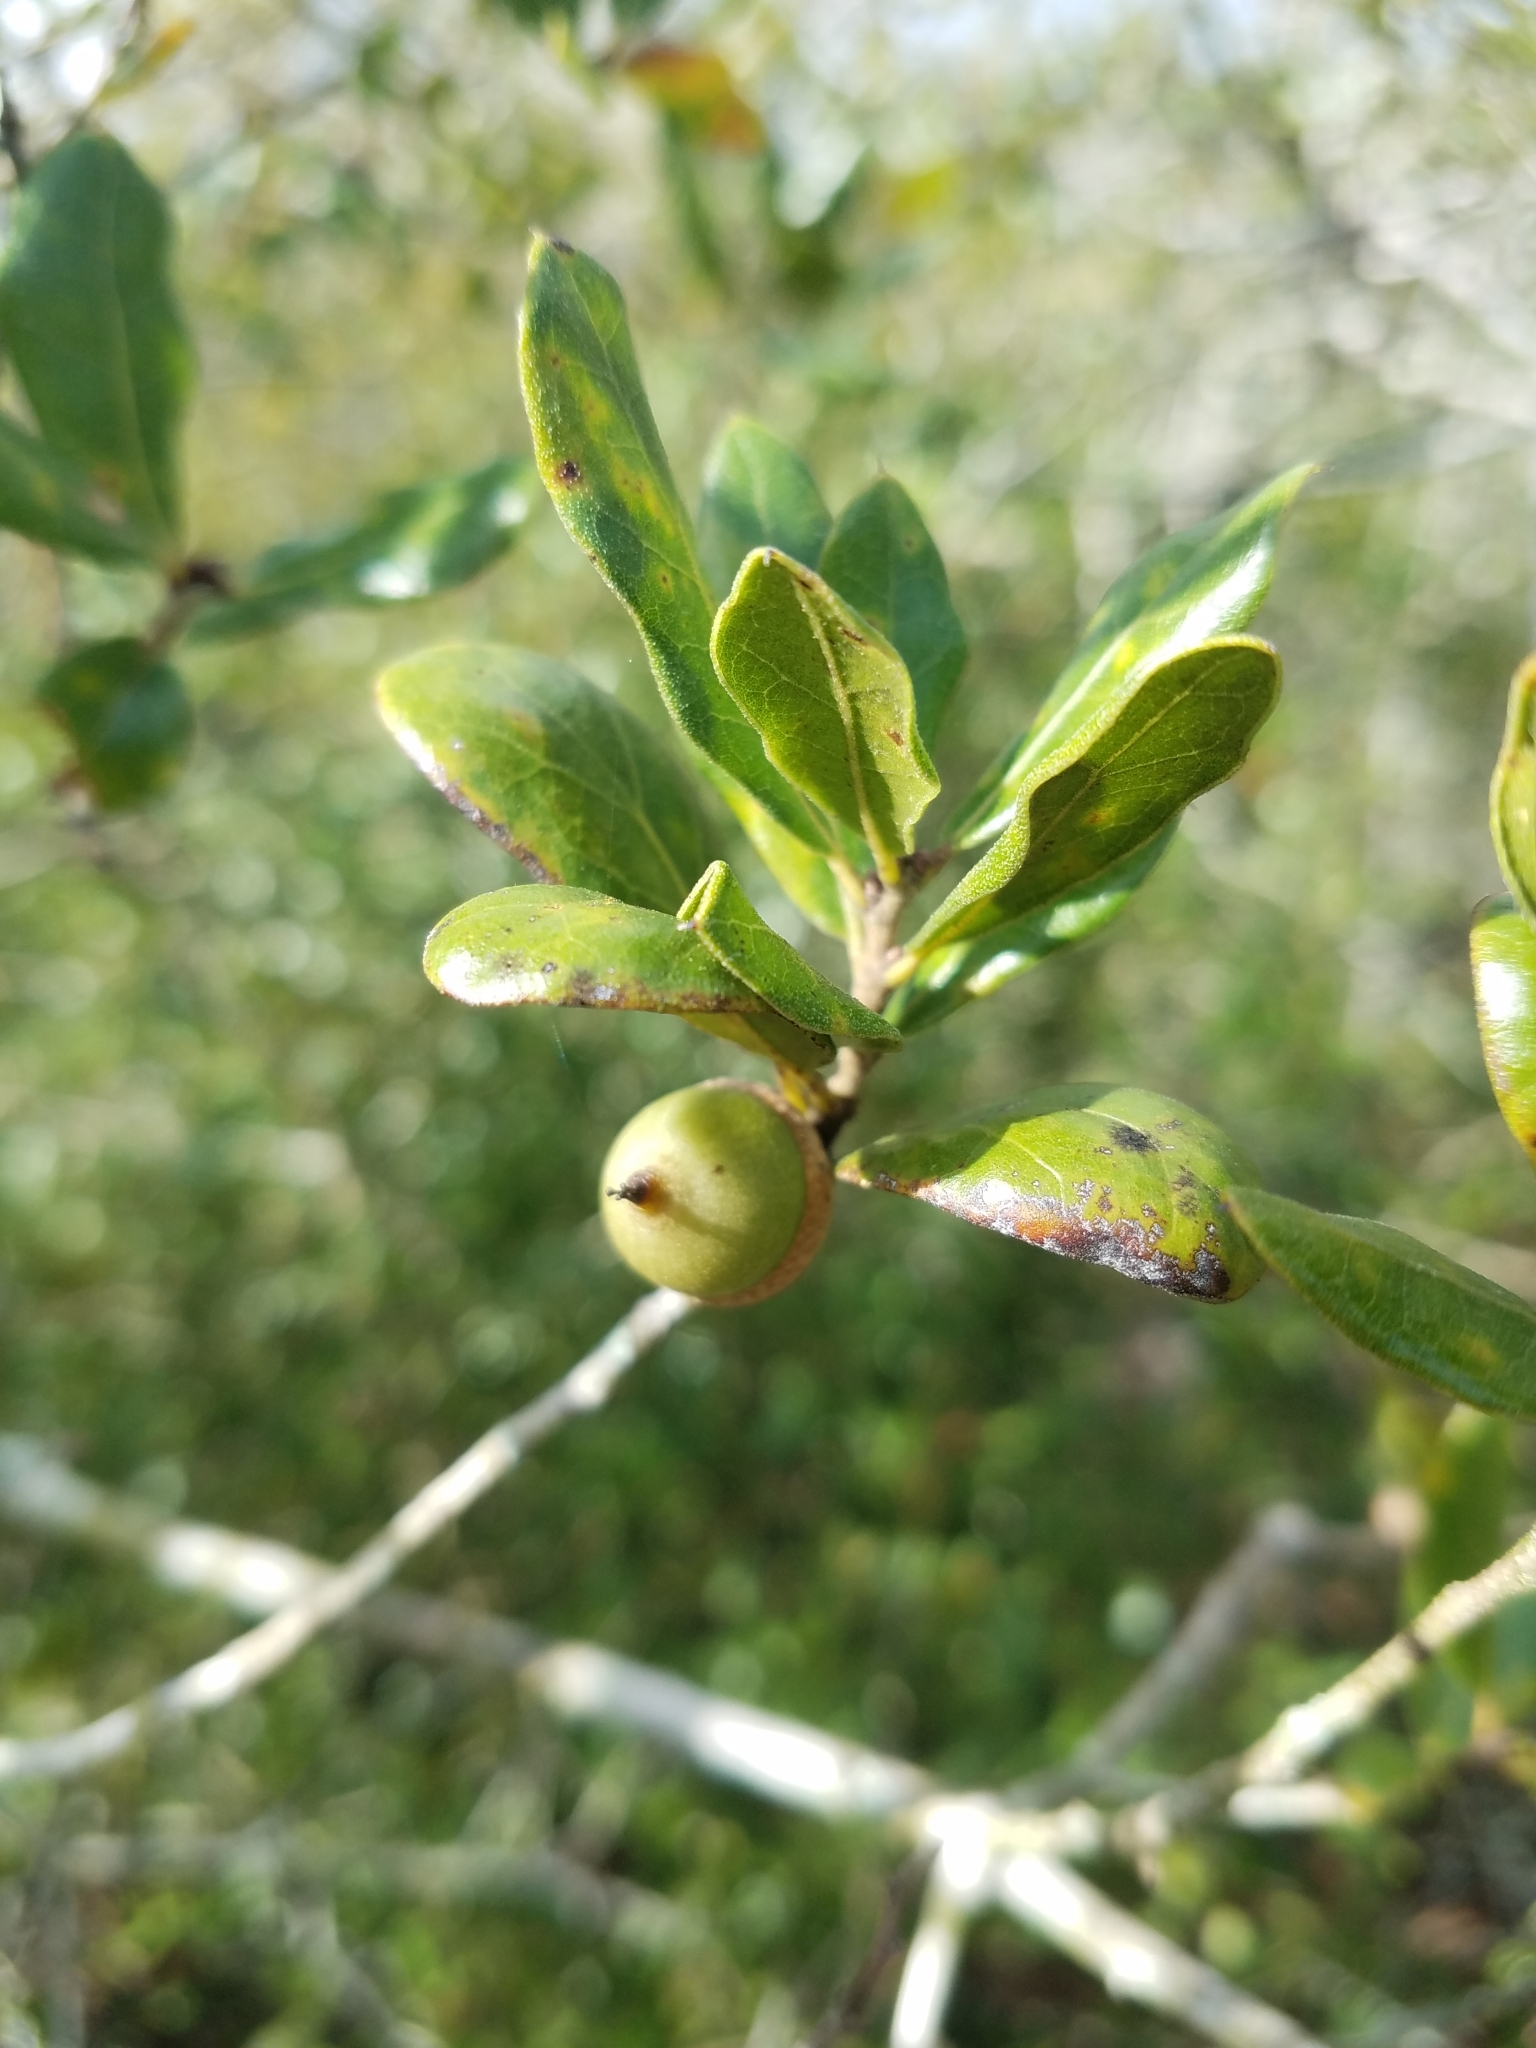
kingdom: Plantae
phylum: Tracheophyta
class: Magnoliopsida
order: Fagales
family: Fagaceae
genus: Quercus
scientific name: Quercus myrtifolia
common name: Myrtle oak
